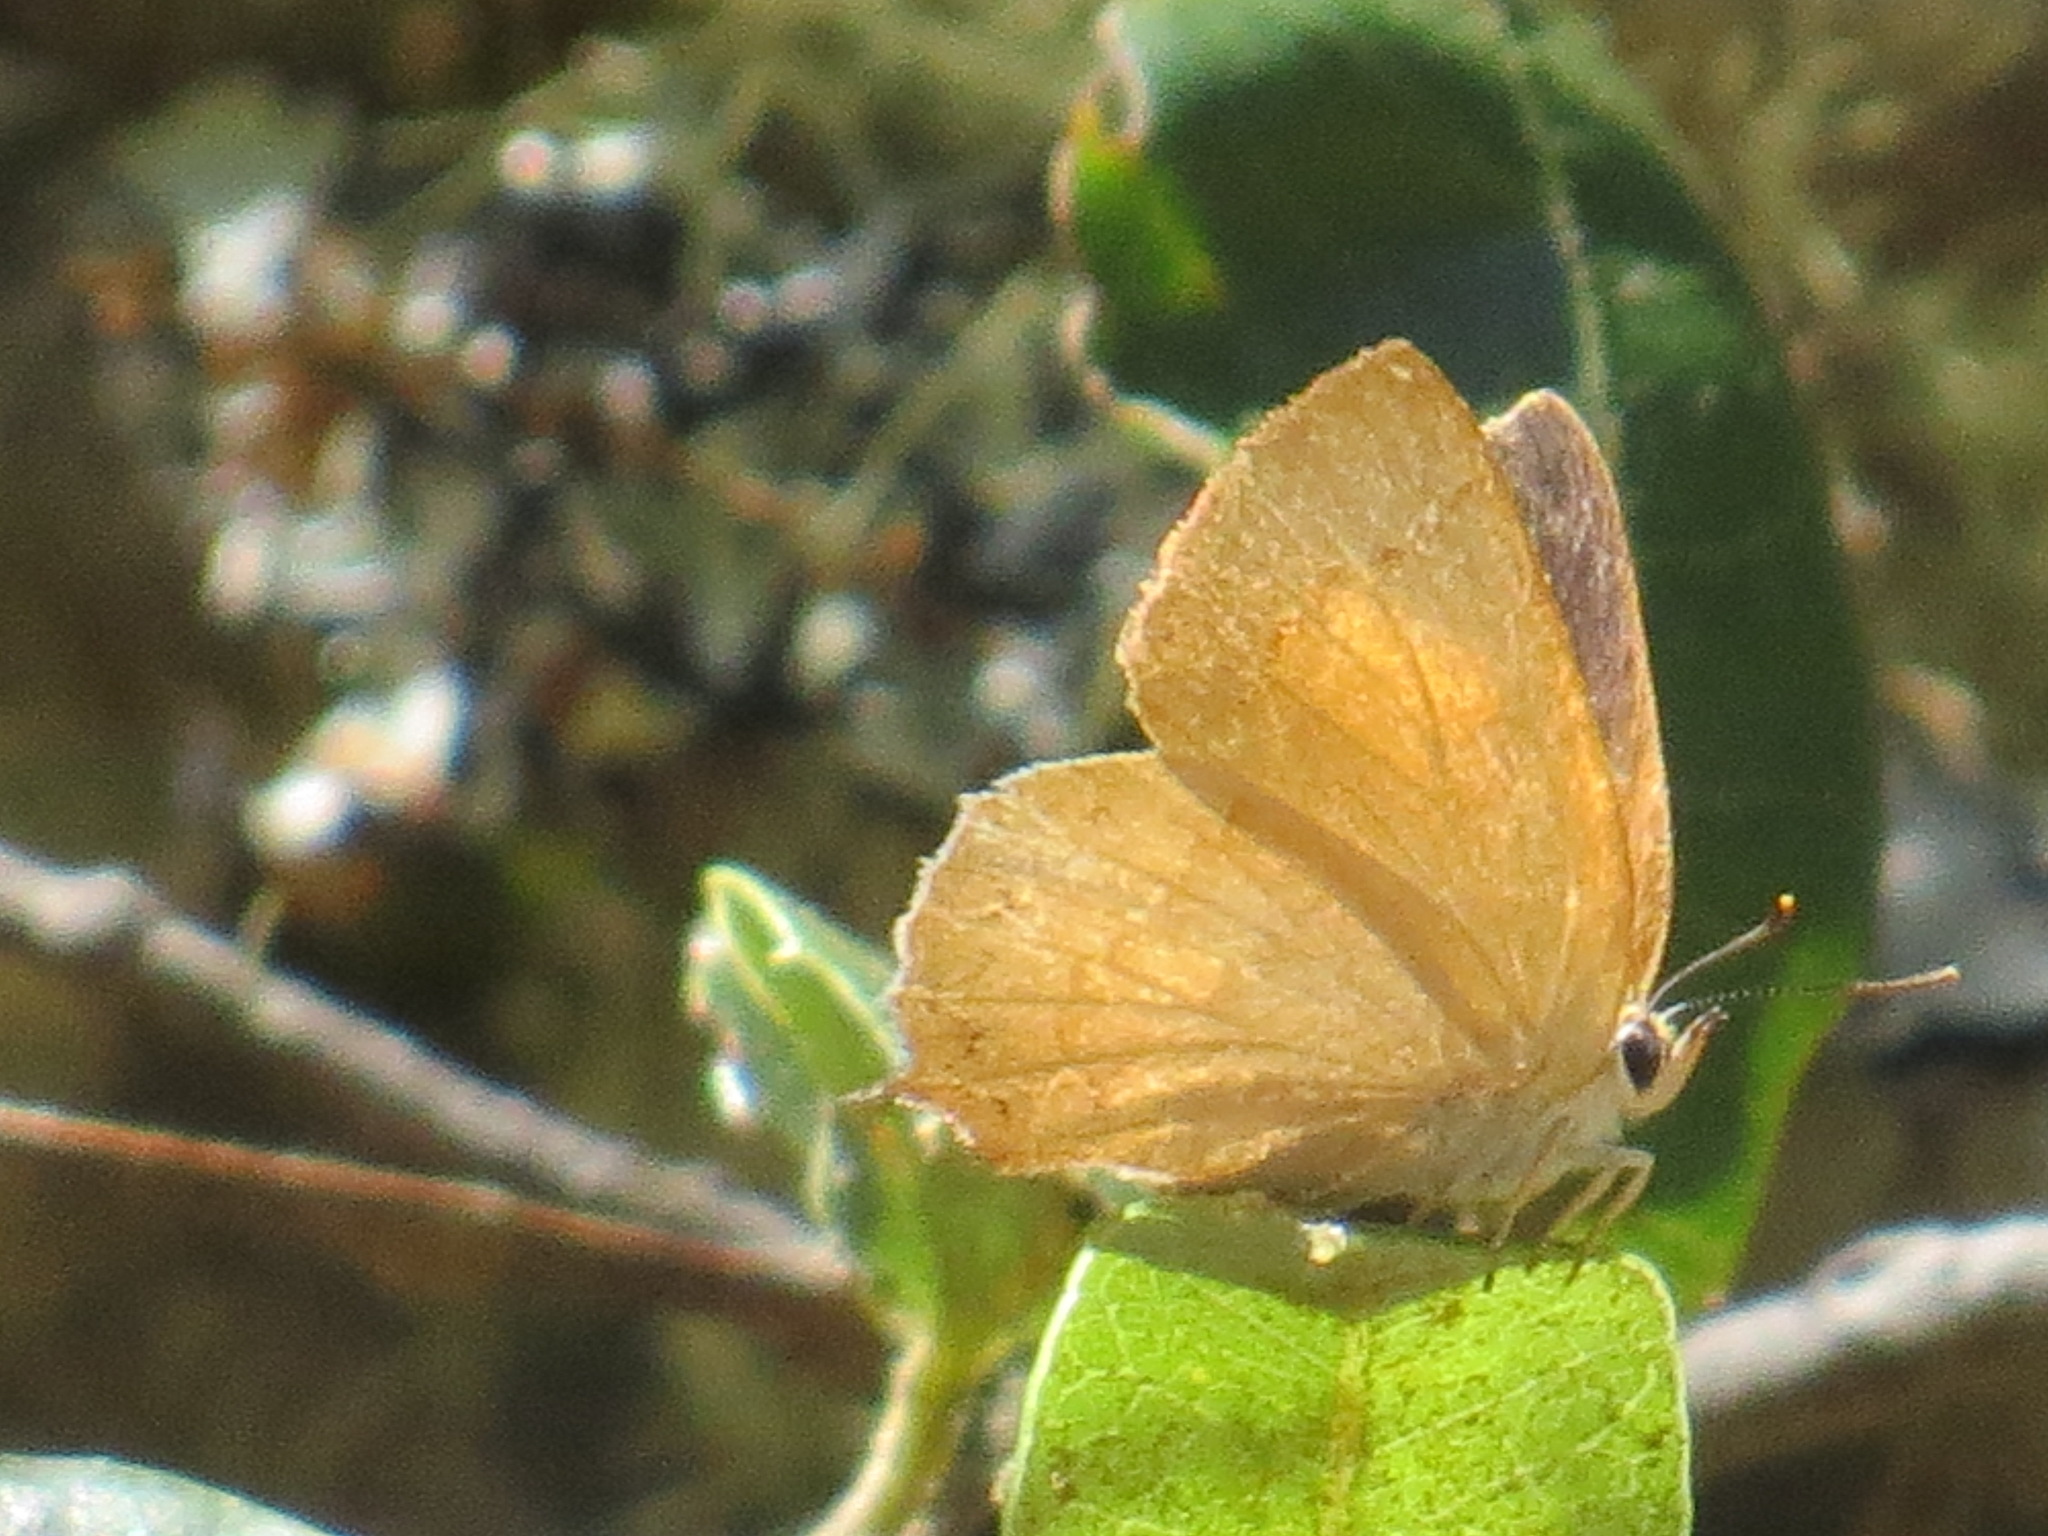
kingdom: Animalia
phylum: Arthropoda
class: Insecta
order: Lepidoptera
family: Lycaenidae
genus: Habrodais
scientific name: Habrodais grunus
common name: Golden hairstreak
